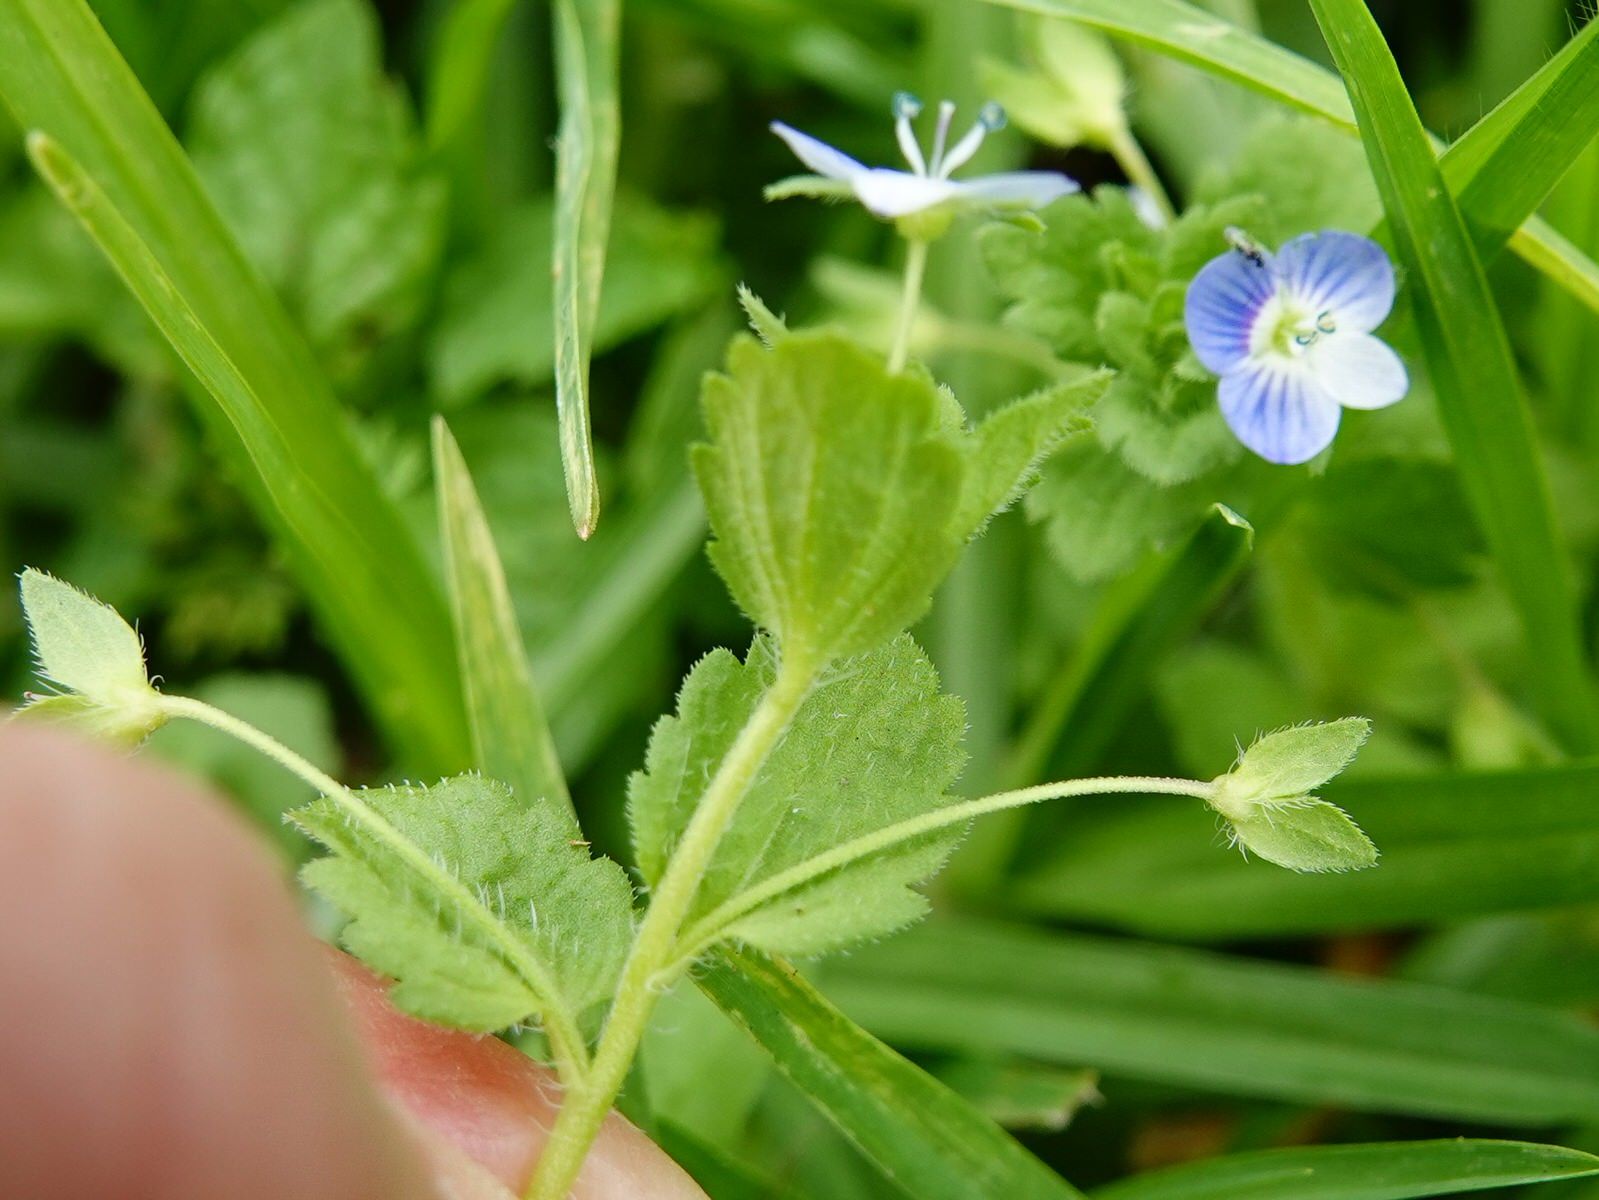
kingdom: Plantae
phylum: Tracheophyta
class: Magnoliopsida
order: Lamiales
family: Plantaginaceae
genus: Veronica
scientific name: Veronica persica
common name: Common field-speedwell
